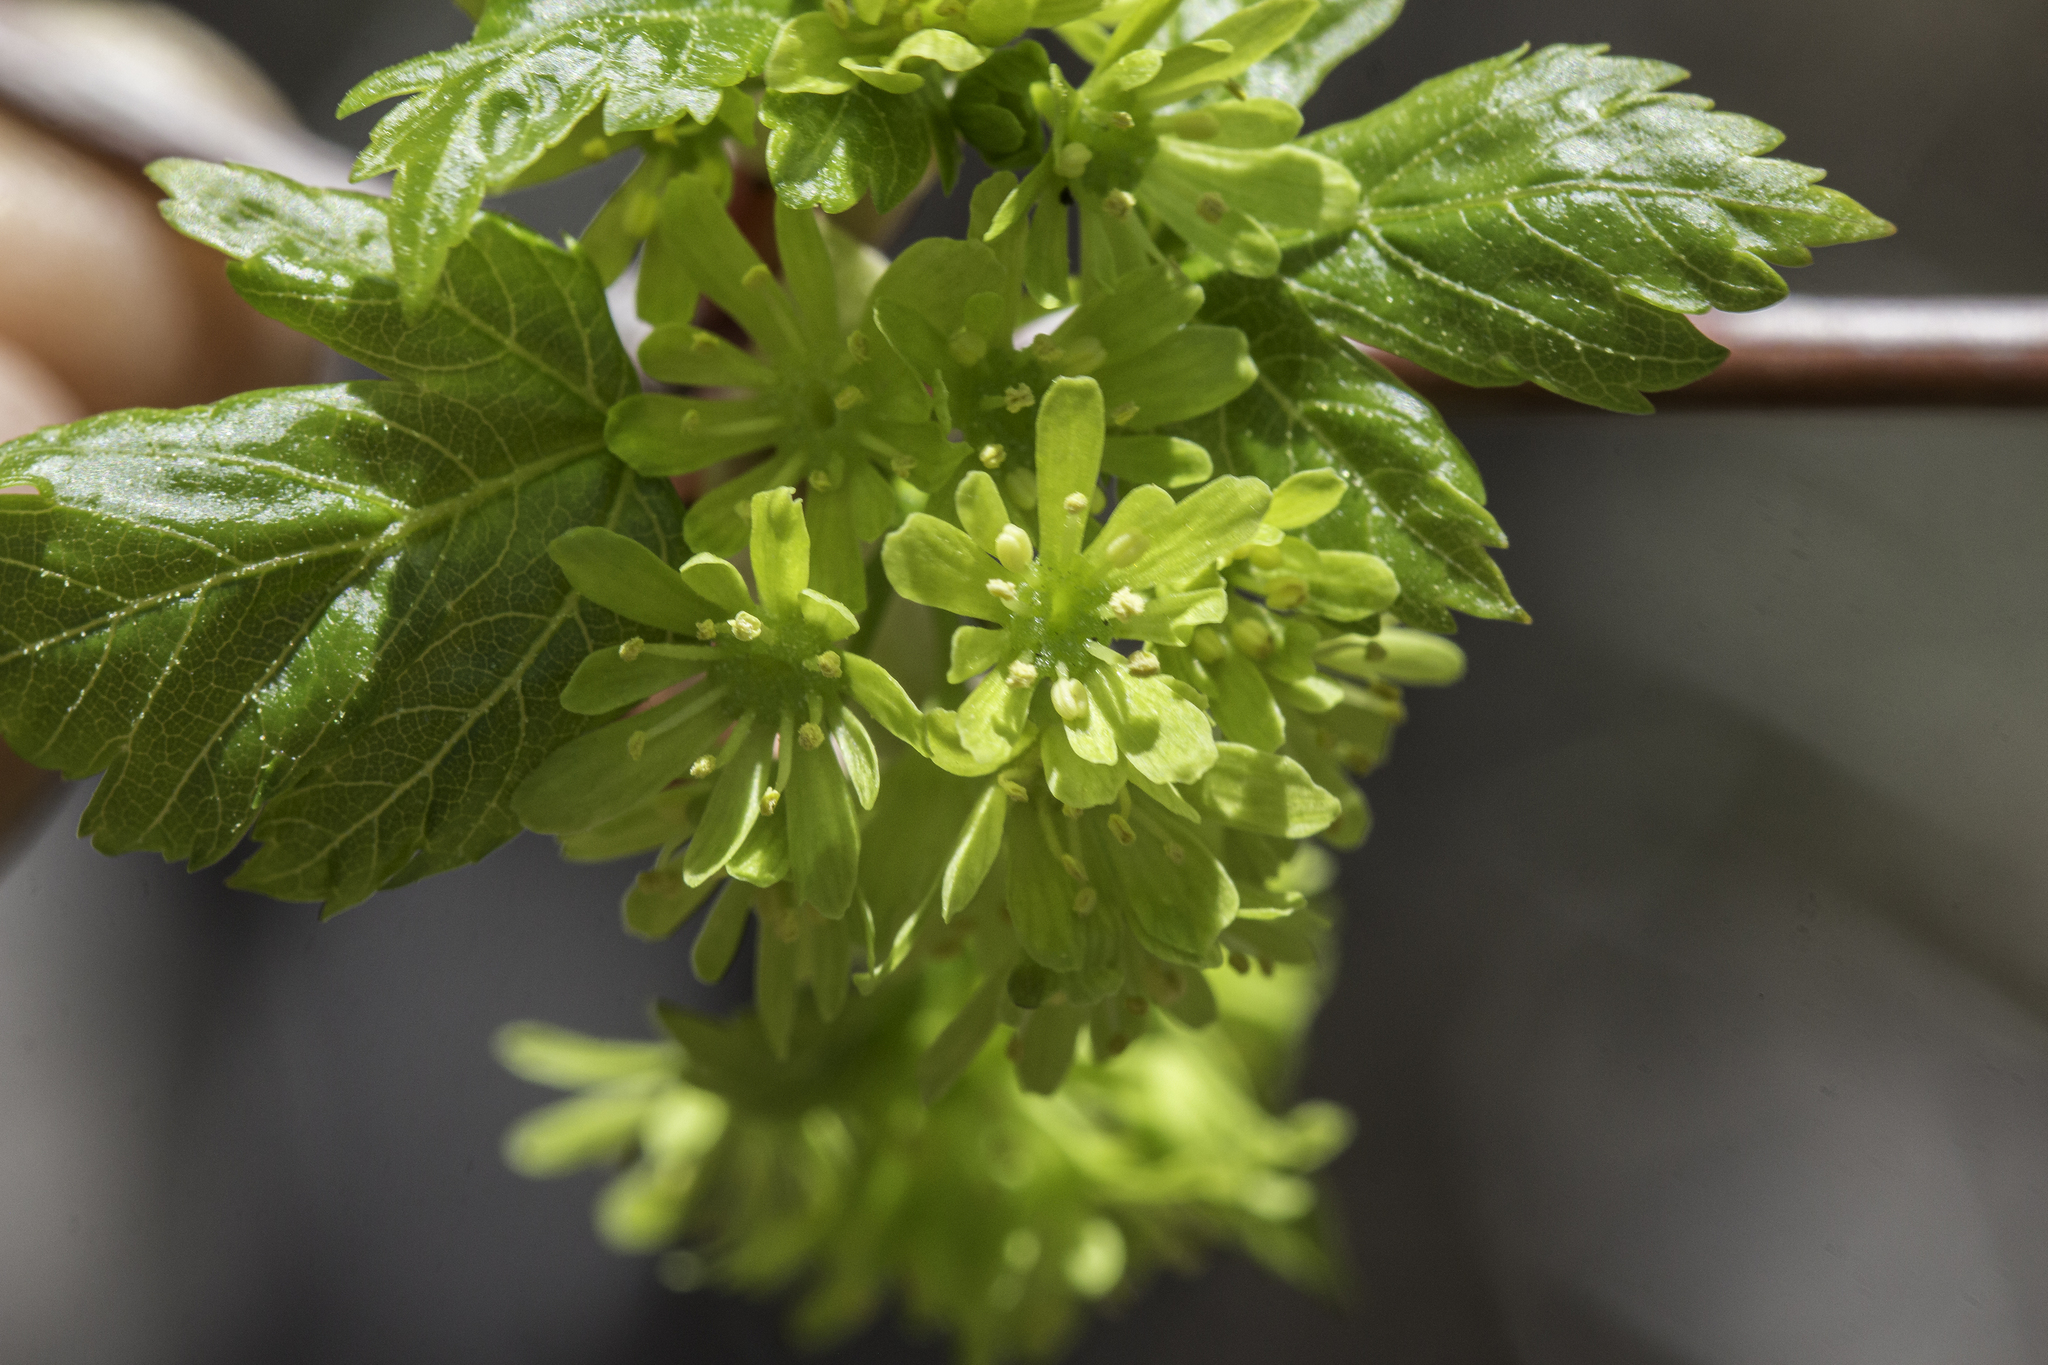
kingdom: Plantae
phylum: Tracheophyta
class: Magnoliopsida
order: Sapindales
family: Sapindaceae
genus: Acer
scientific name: Acer glabrum
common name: Rocky mountain maple
